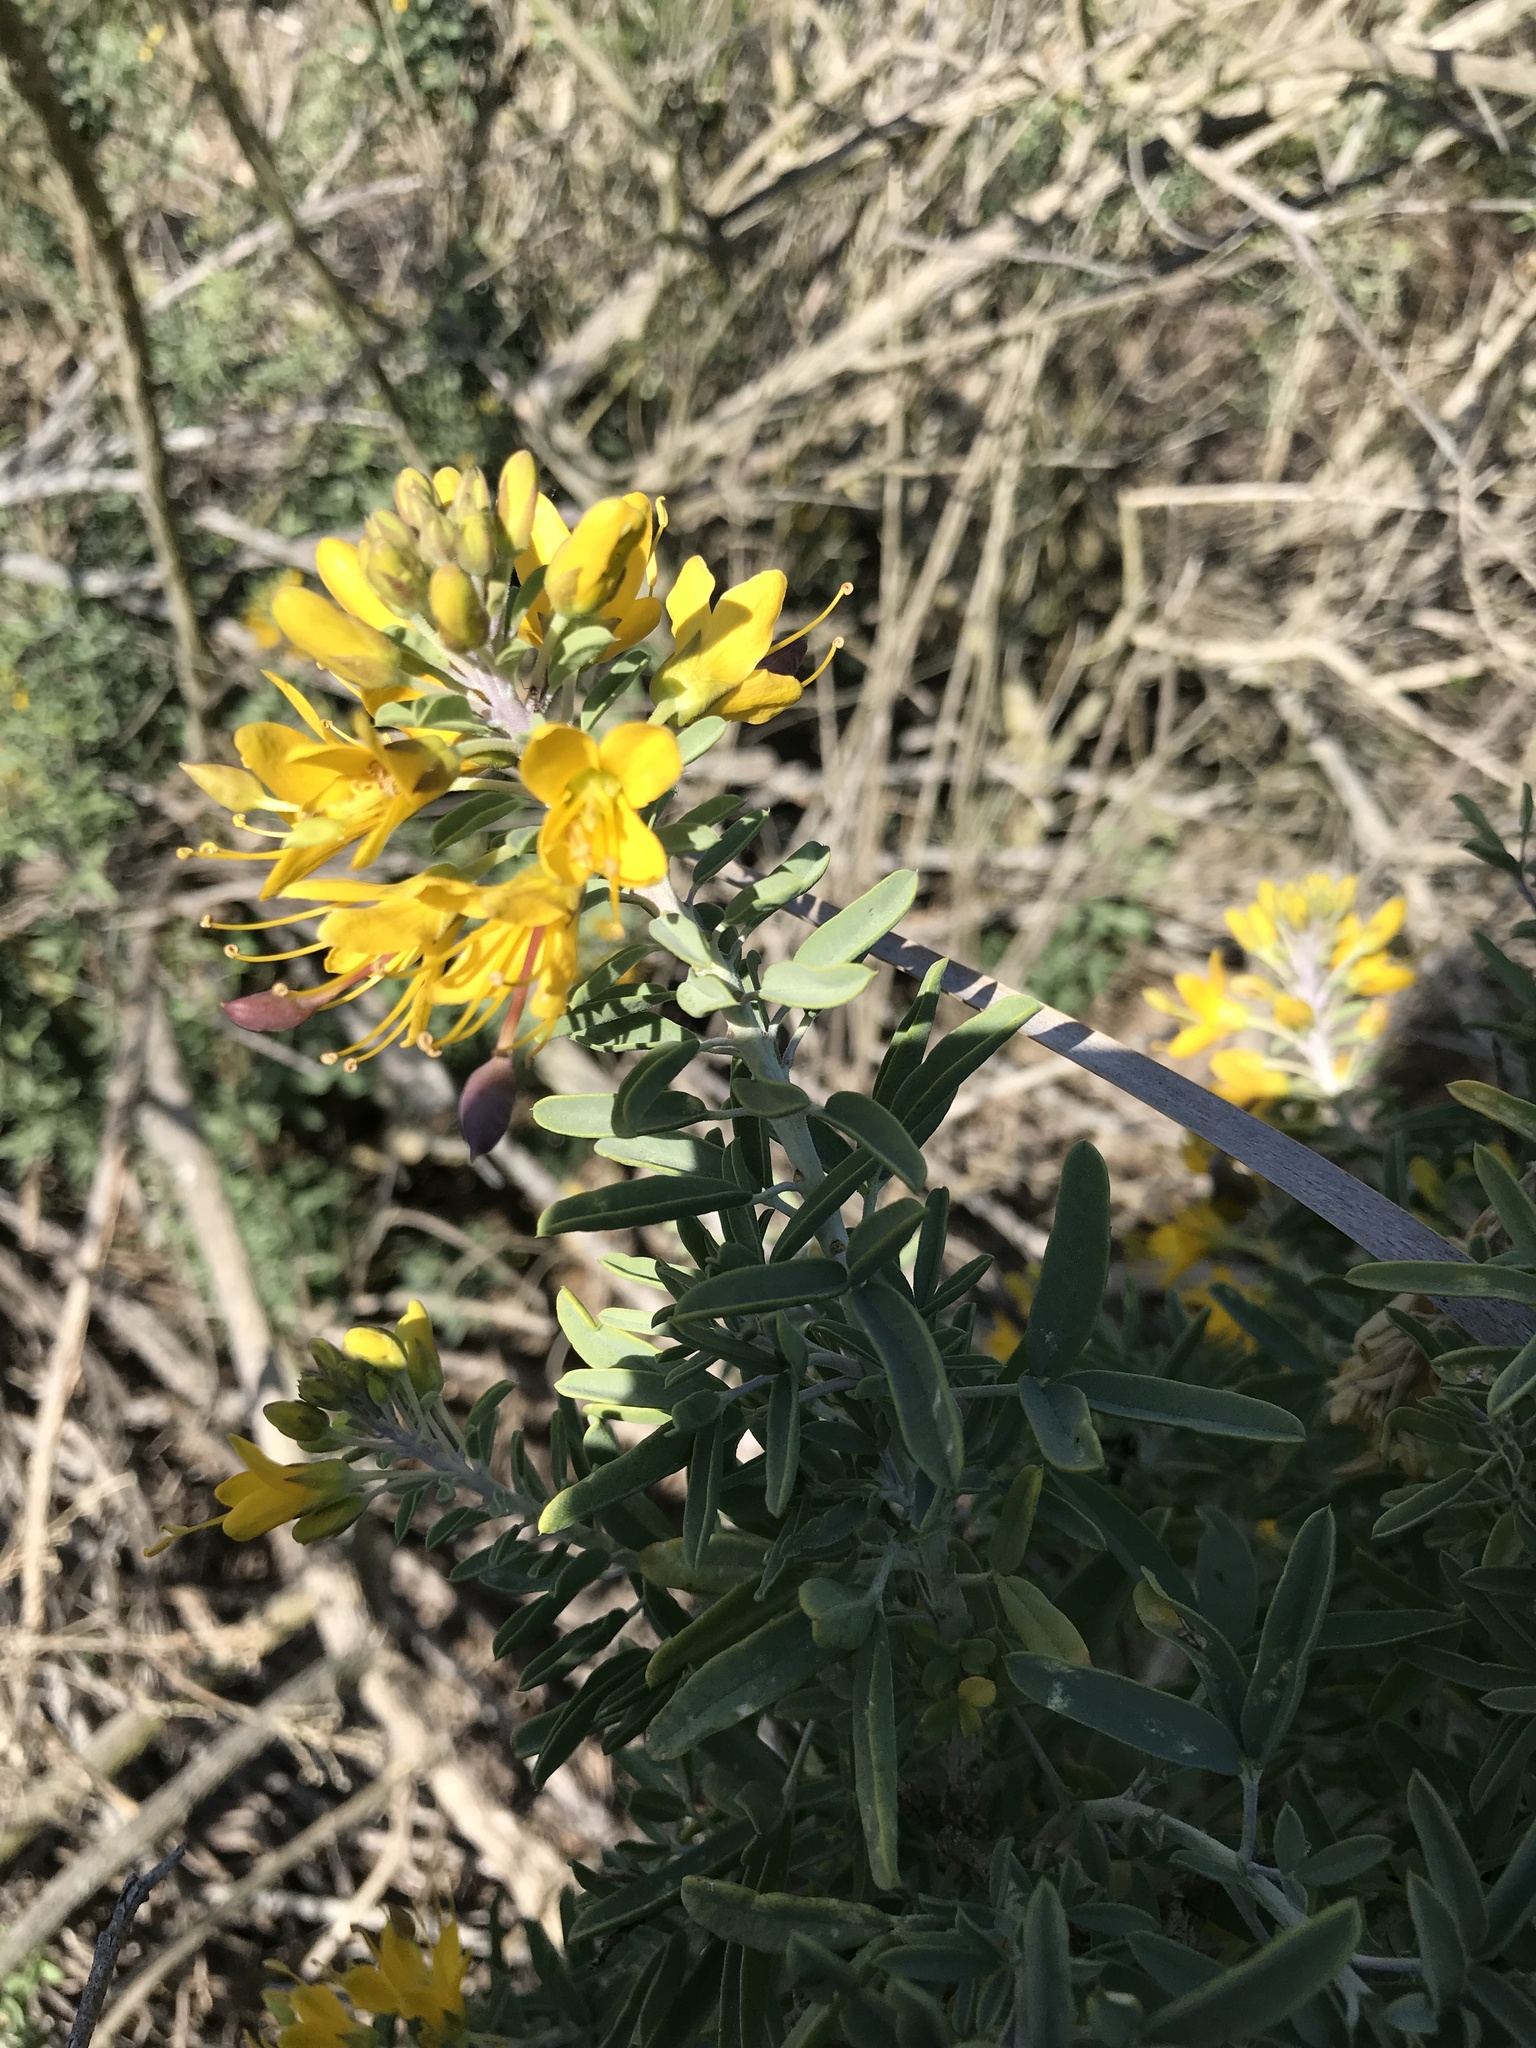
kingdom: Plantae
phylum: Tracheophyta
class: Magnoliopsida
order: Brassicales
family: Cleomaceae
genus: Cleomella
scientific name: Cleomella arborea
